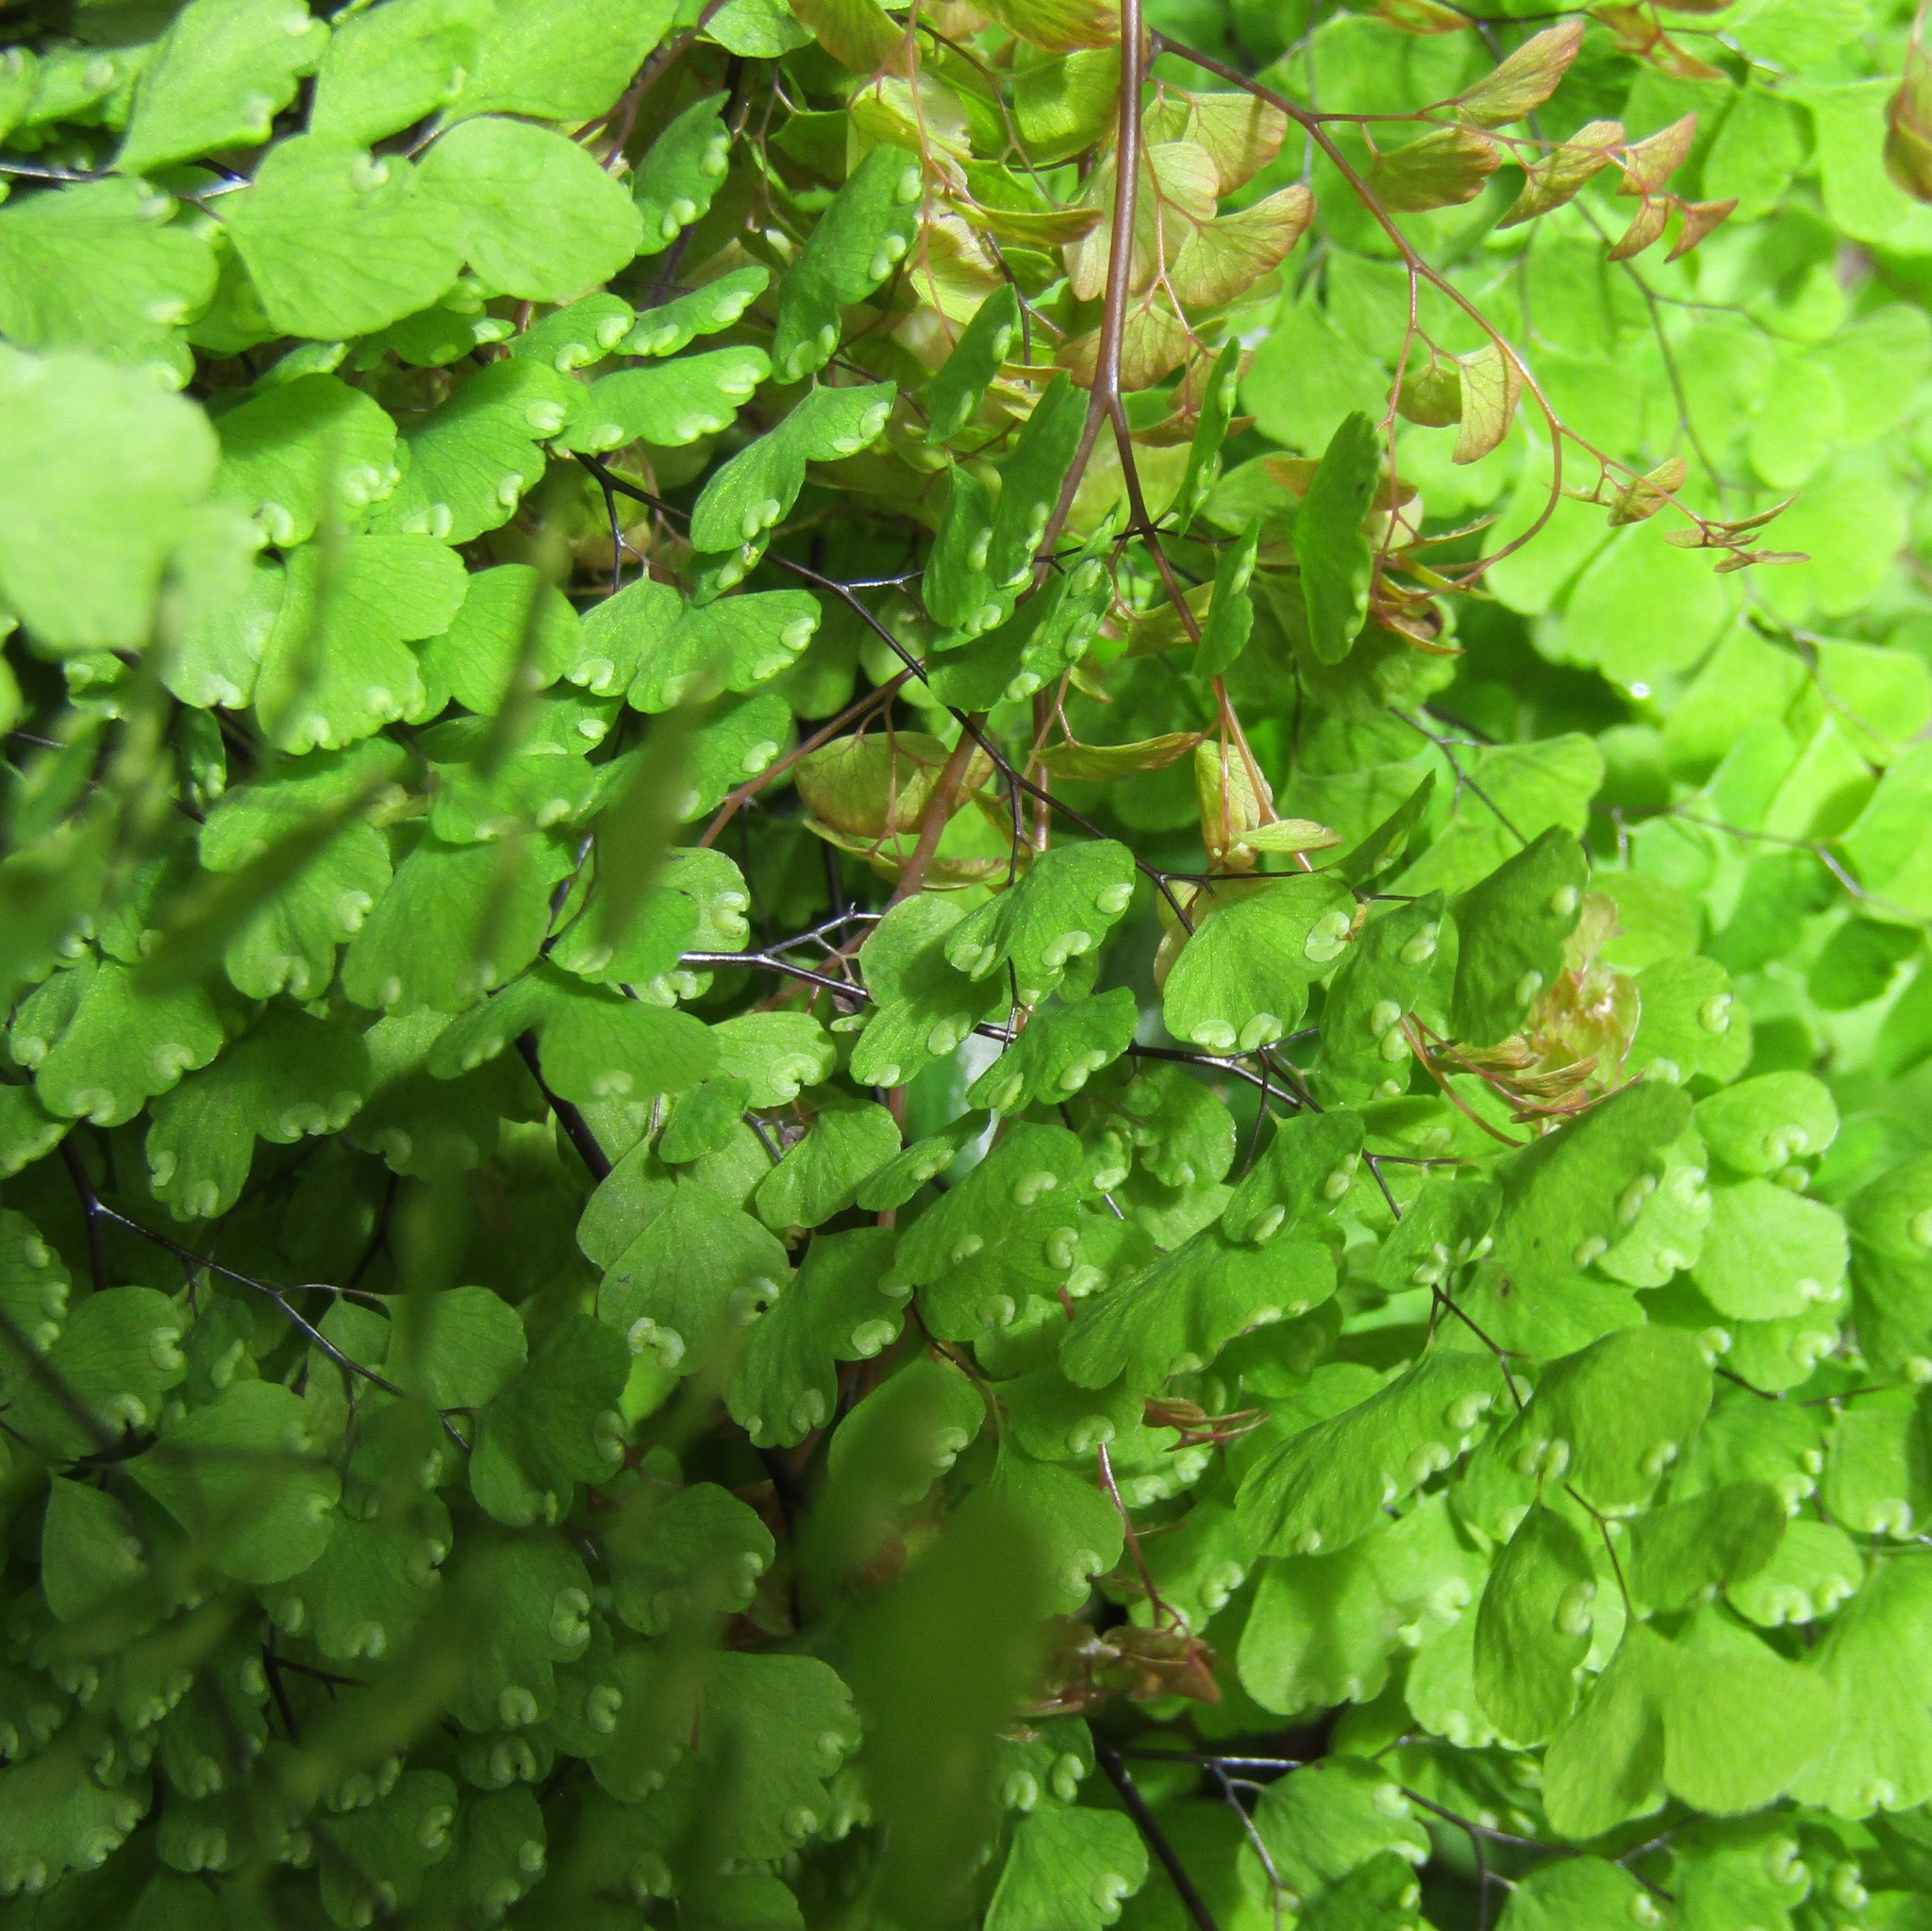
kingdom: Plantae
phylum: Tracheophyta
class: Polypodiopsida
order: Polypodiales
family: Pteridaceae
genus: Adiantum
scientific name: Adiantum raddianum
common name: Delta maidenhair fern
